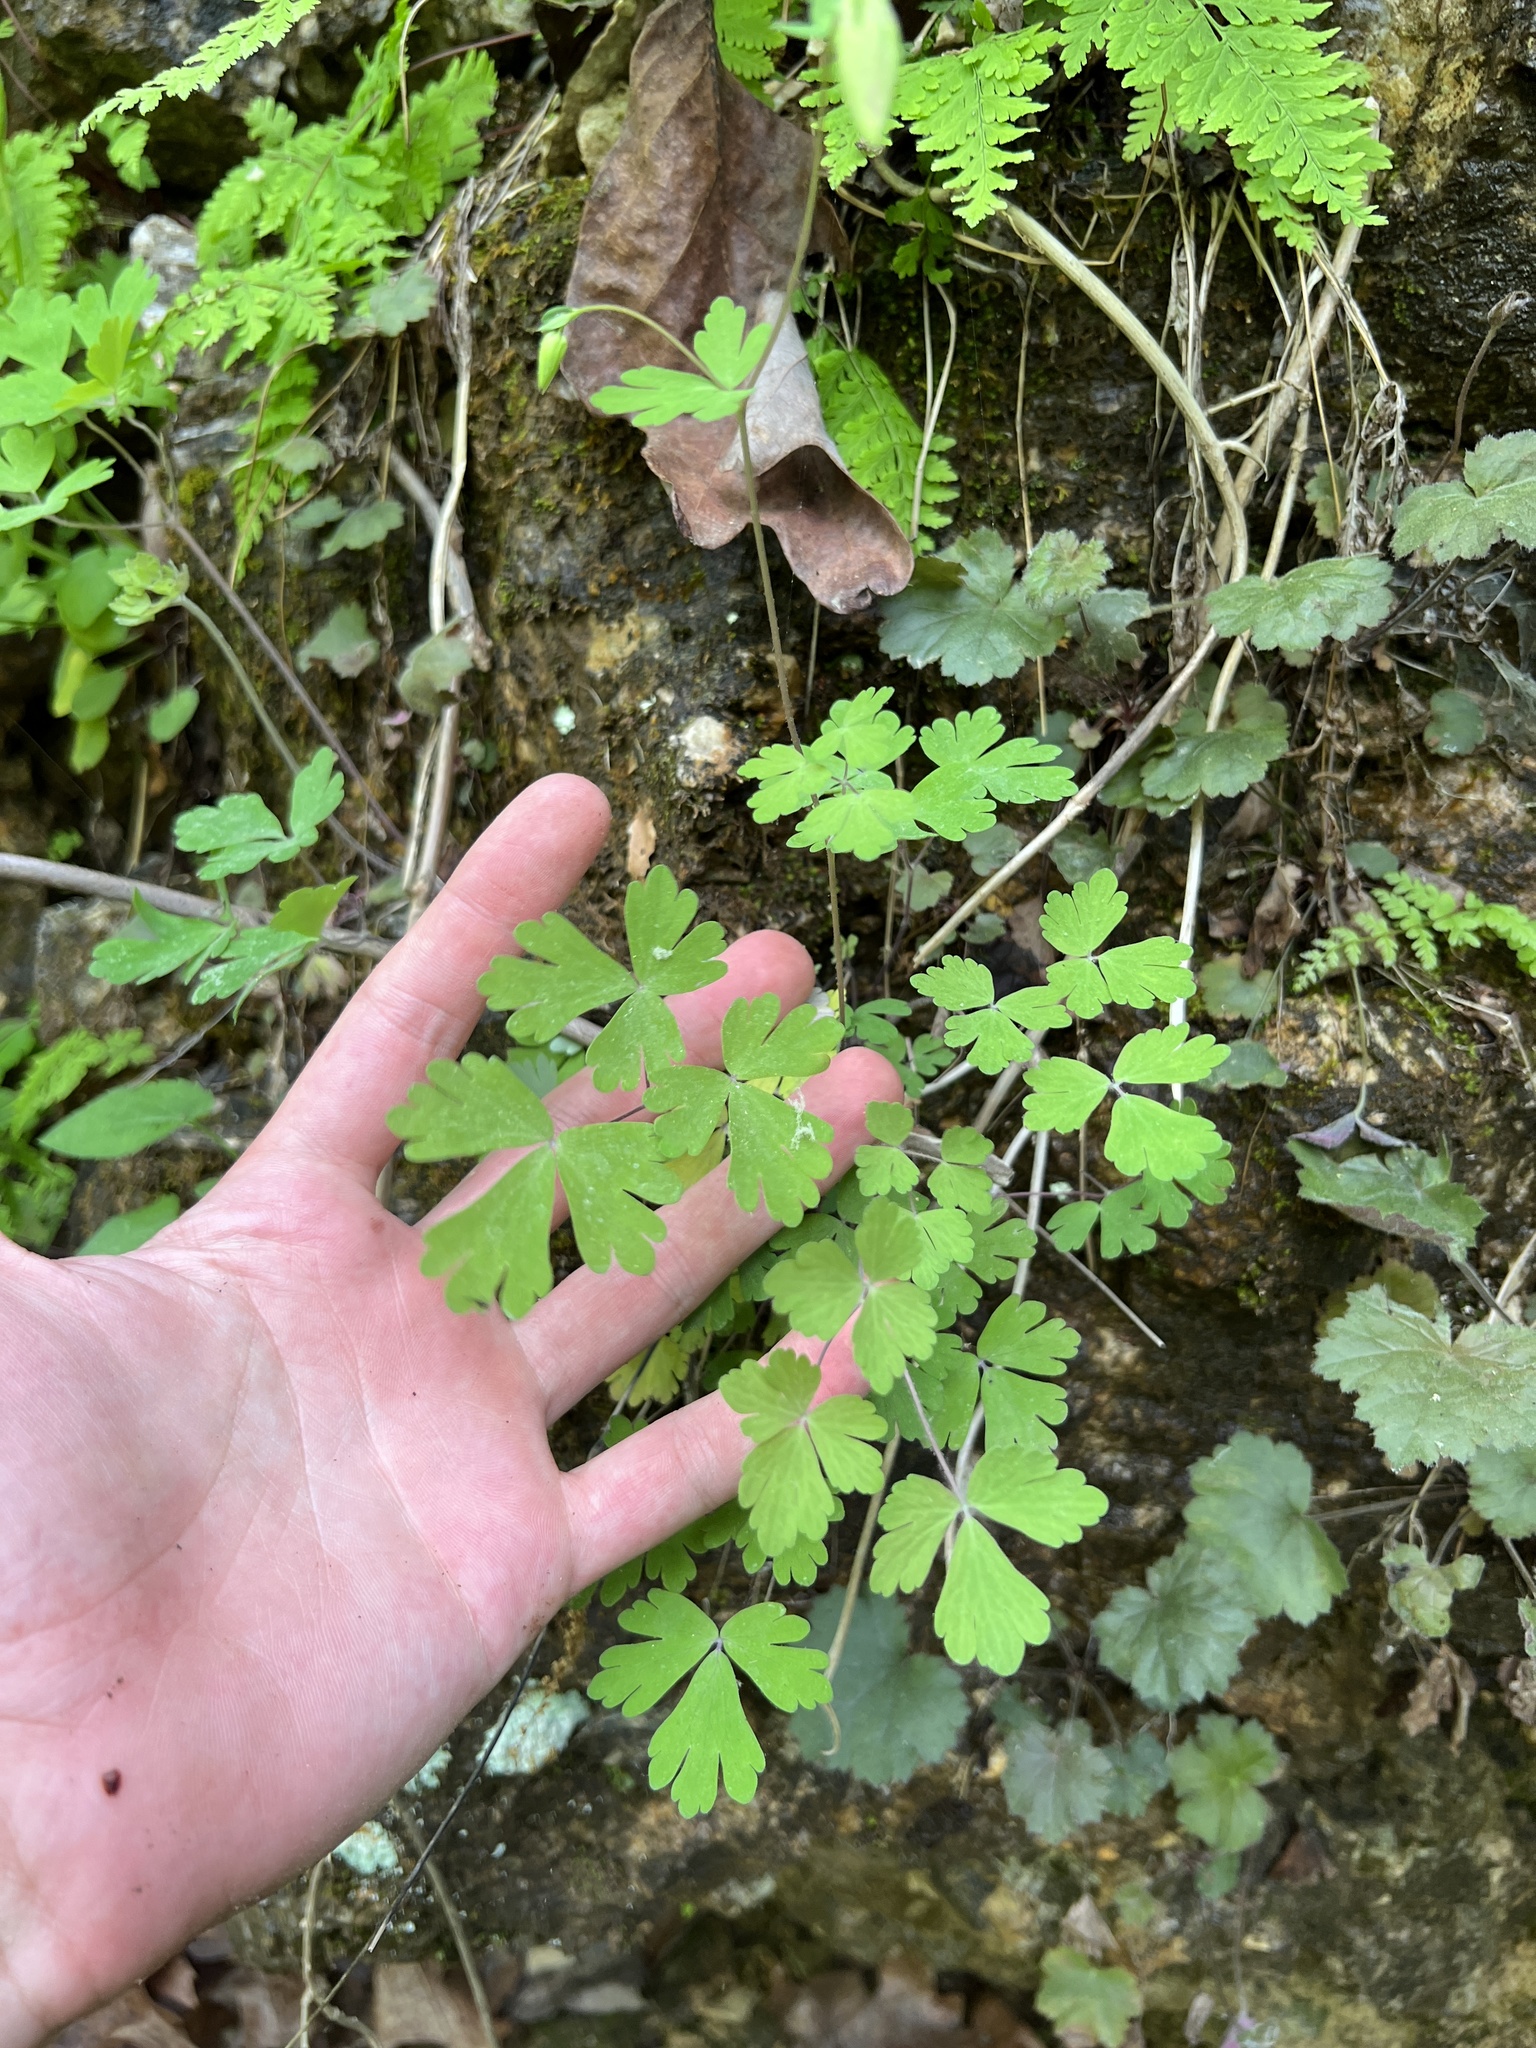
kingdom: Plantae
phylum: Tracheophyta
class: Magnoliopsida
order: Ranunculales
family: Ranunculaceae
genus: Aquilegia
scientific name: Aquilegia canadensis
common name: American columbine
